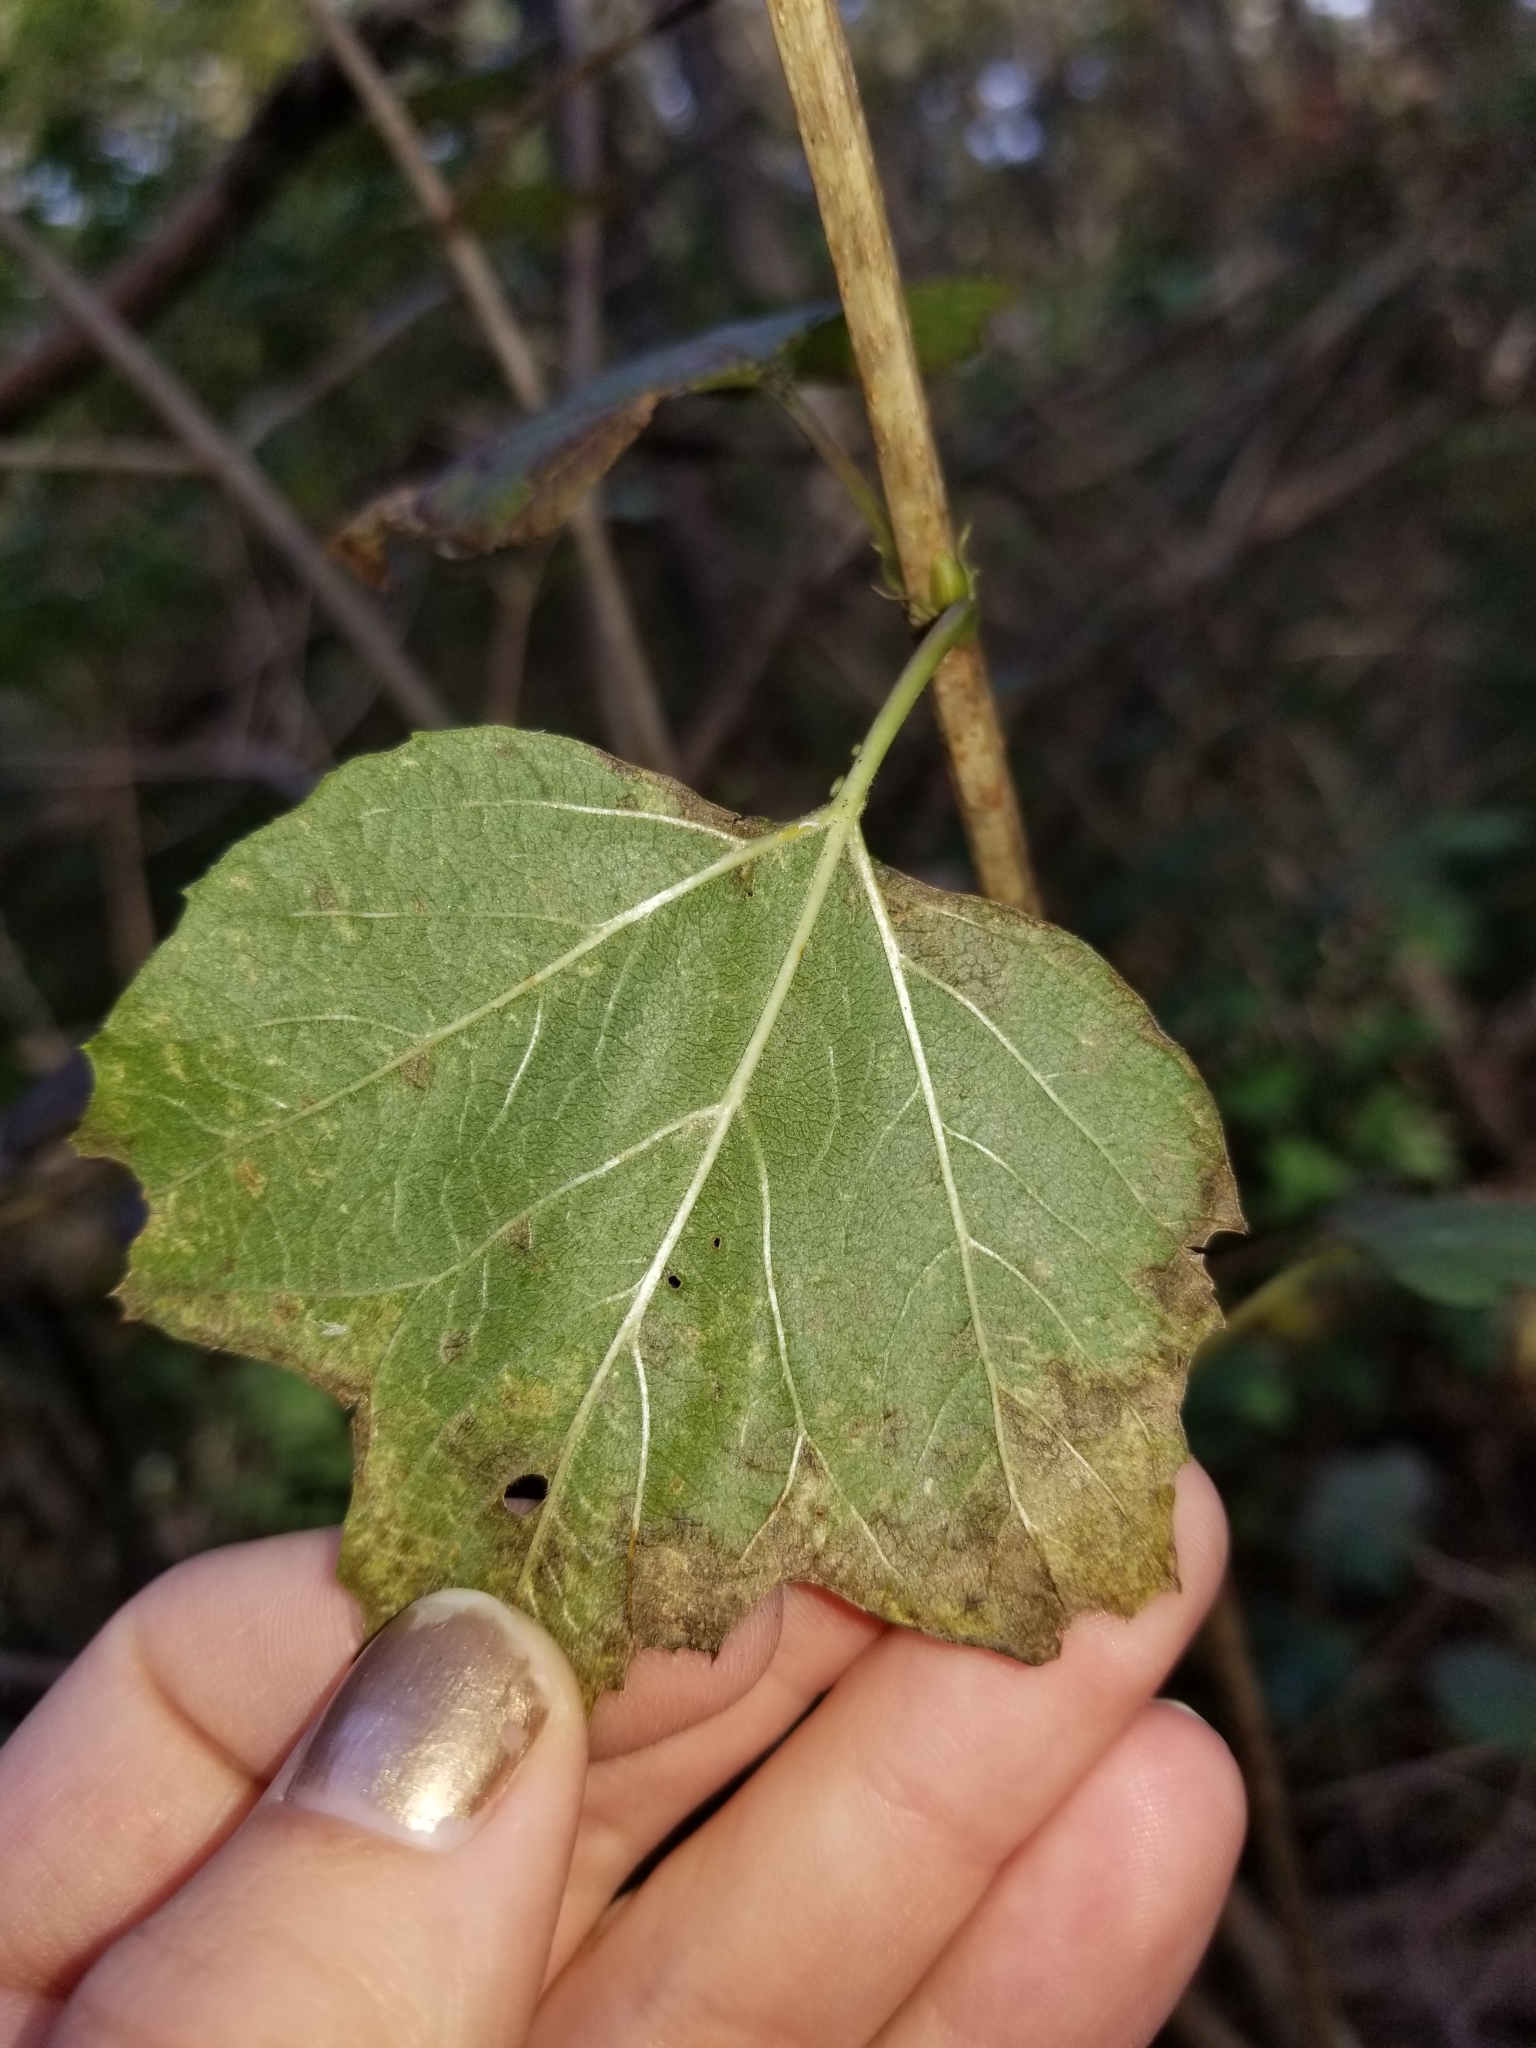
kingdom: Plantae
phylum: Tracheophyta
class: Magnoliopsida
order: Dipsacales
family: Viburnaceae
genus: Viburnum
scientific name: Viburnum opulus
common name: Guelder-rose
